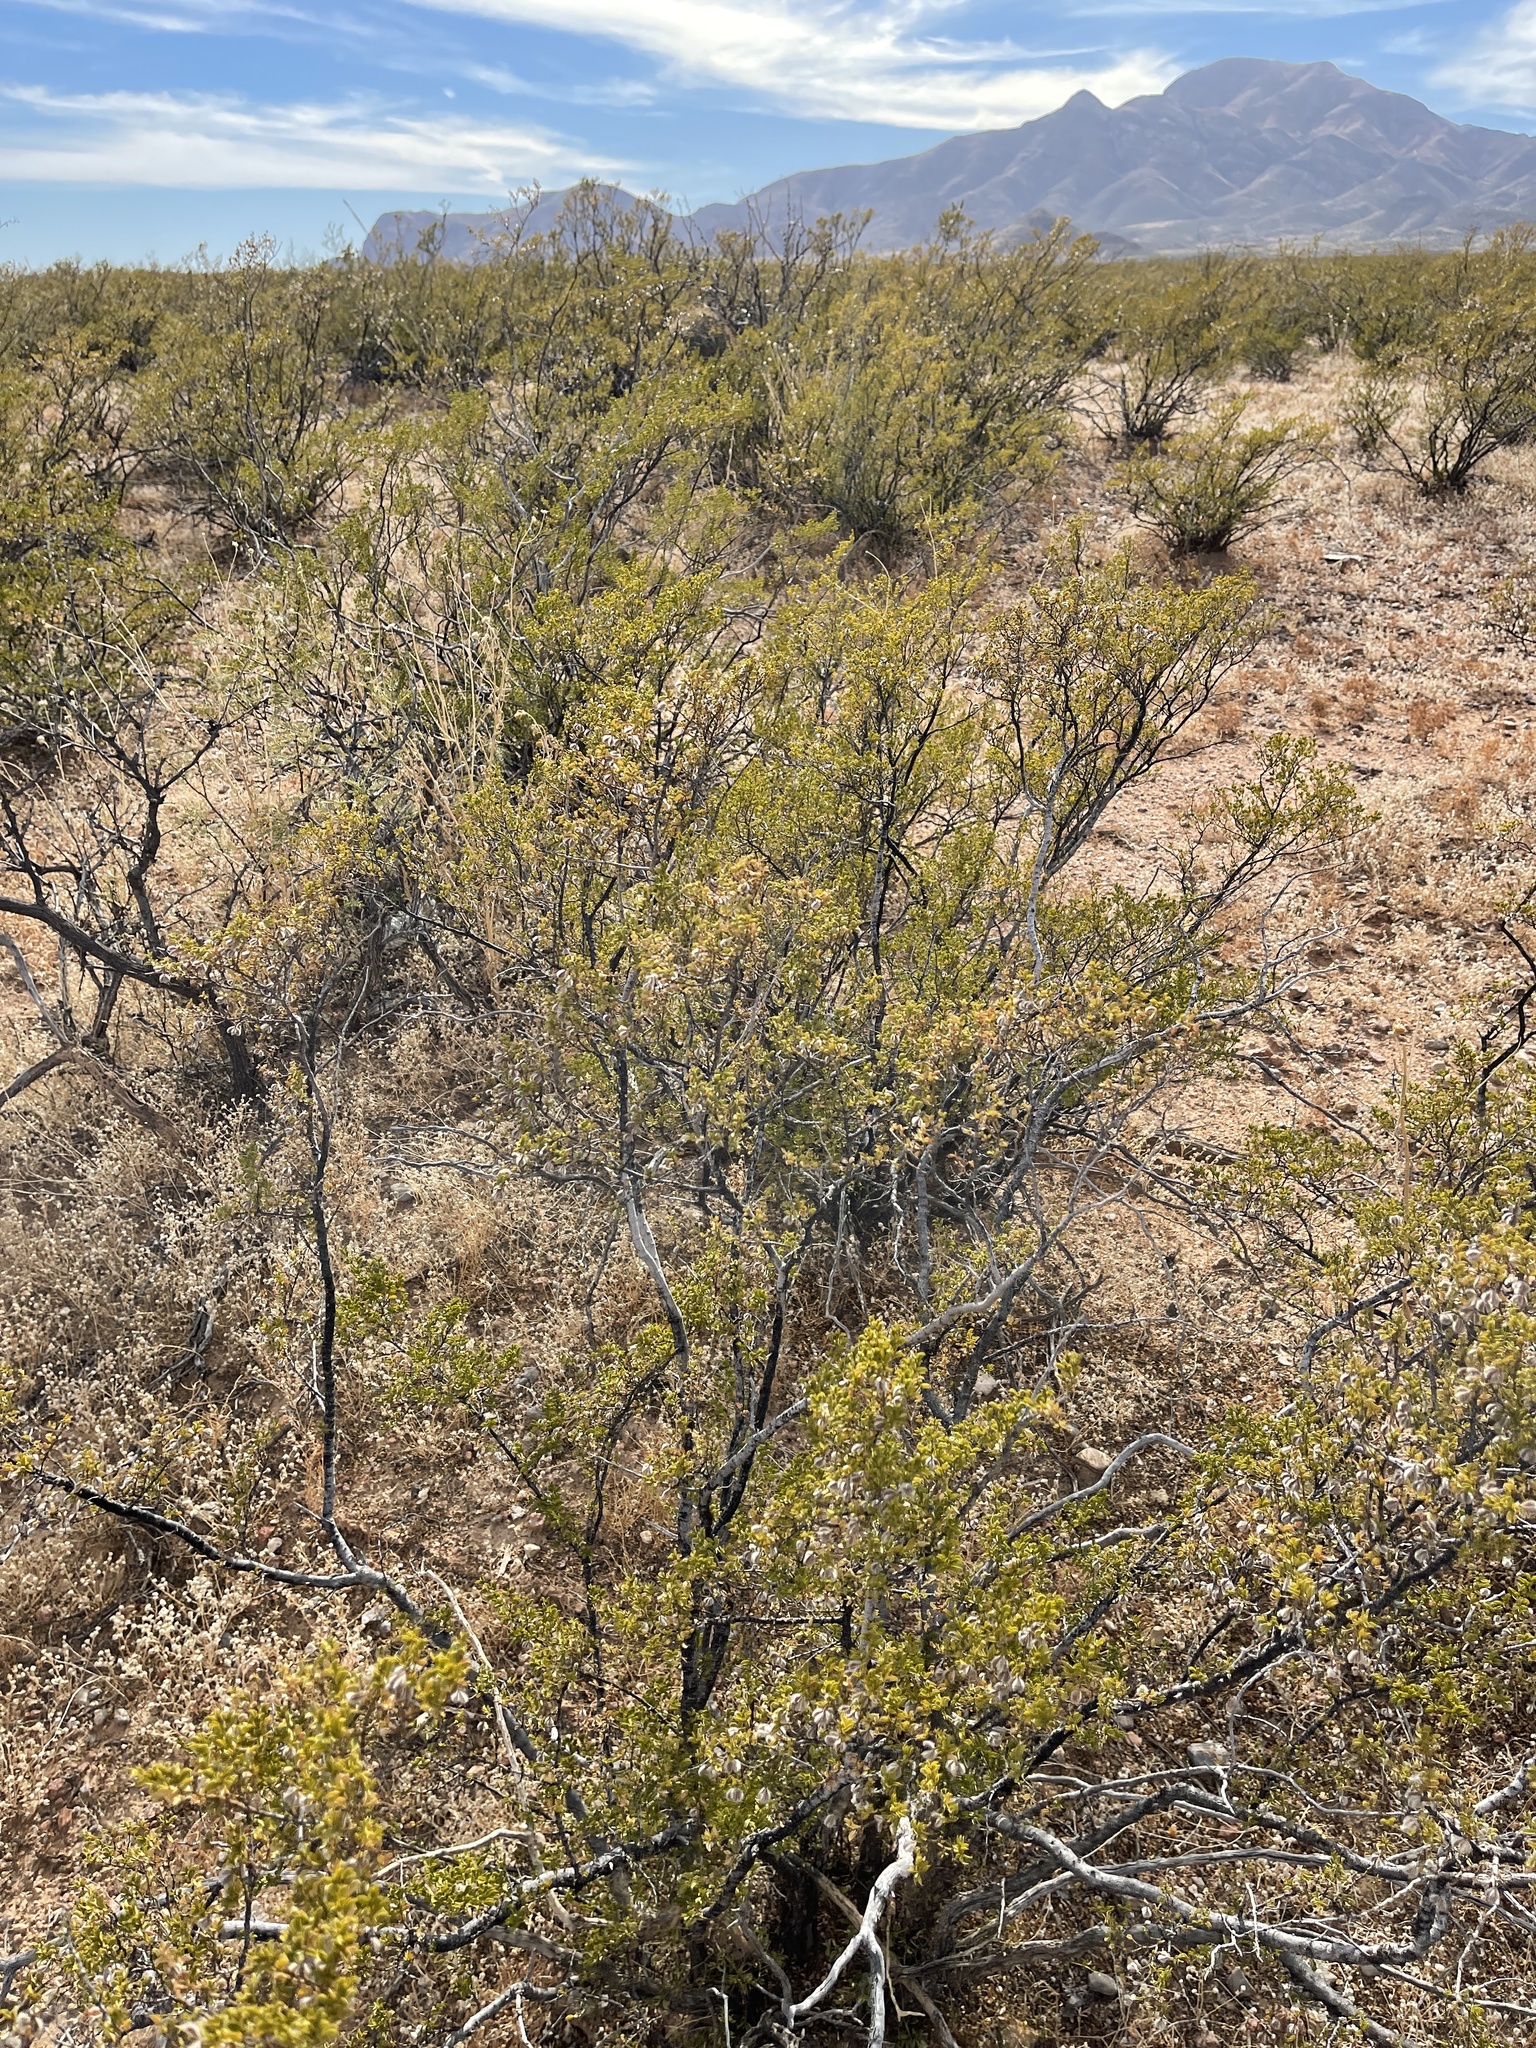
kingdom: Plantae
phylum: Tracheophyta
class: Magnoliopsida
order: Zygophyllales
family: Zygophyllaceae
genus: Larrea
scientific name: Larrea tridentata
